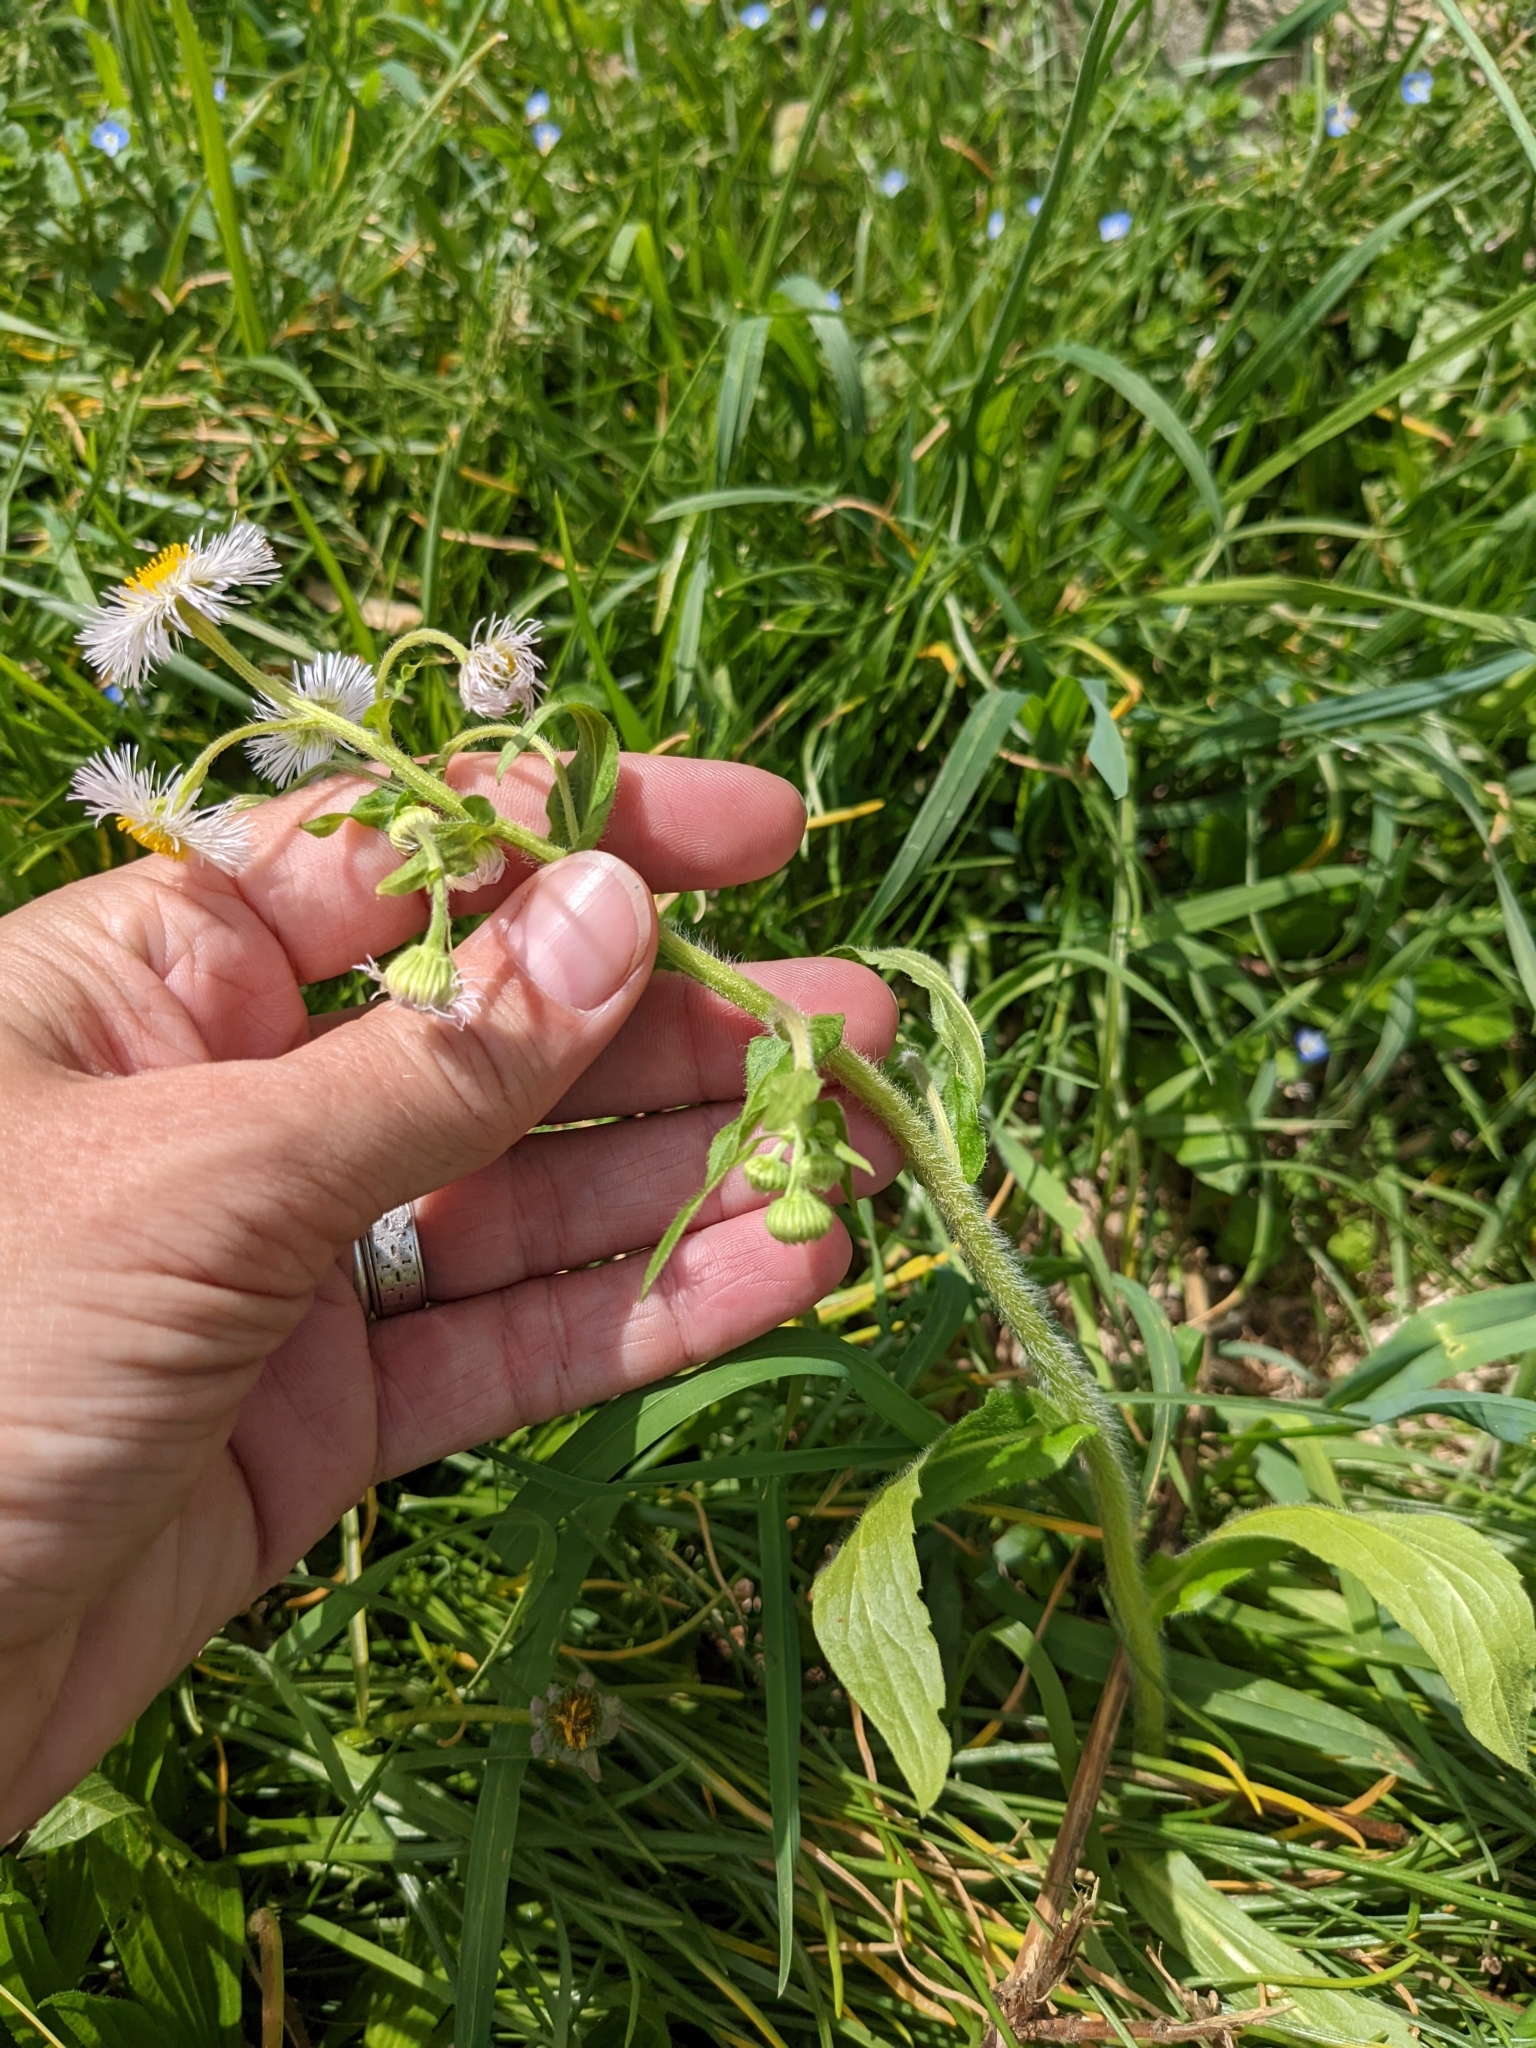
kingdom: Plantae
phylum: Tracheophyta
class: Magnoliopsida
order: Asterales
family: Asteraceae
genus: Erigeron
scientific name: Erigeron philadelphicus
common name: Robin's-plantain
